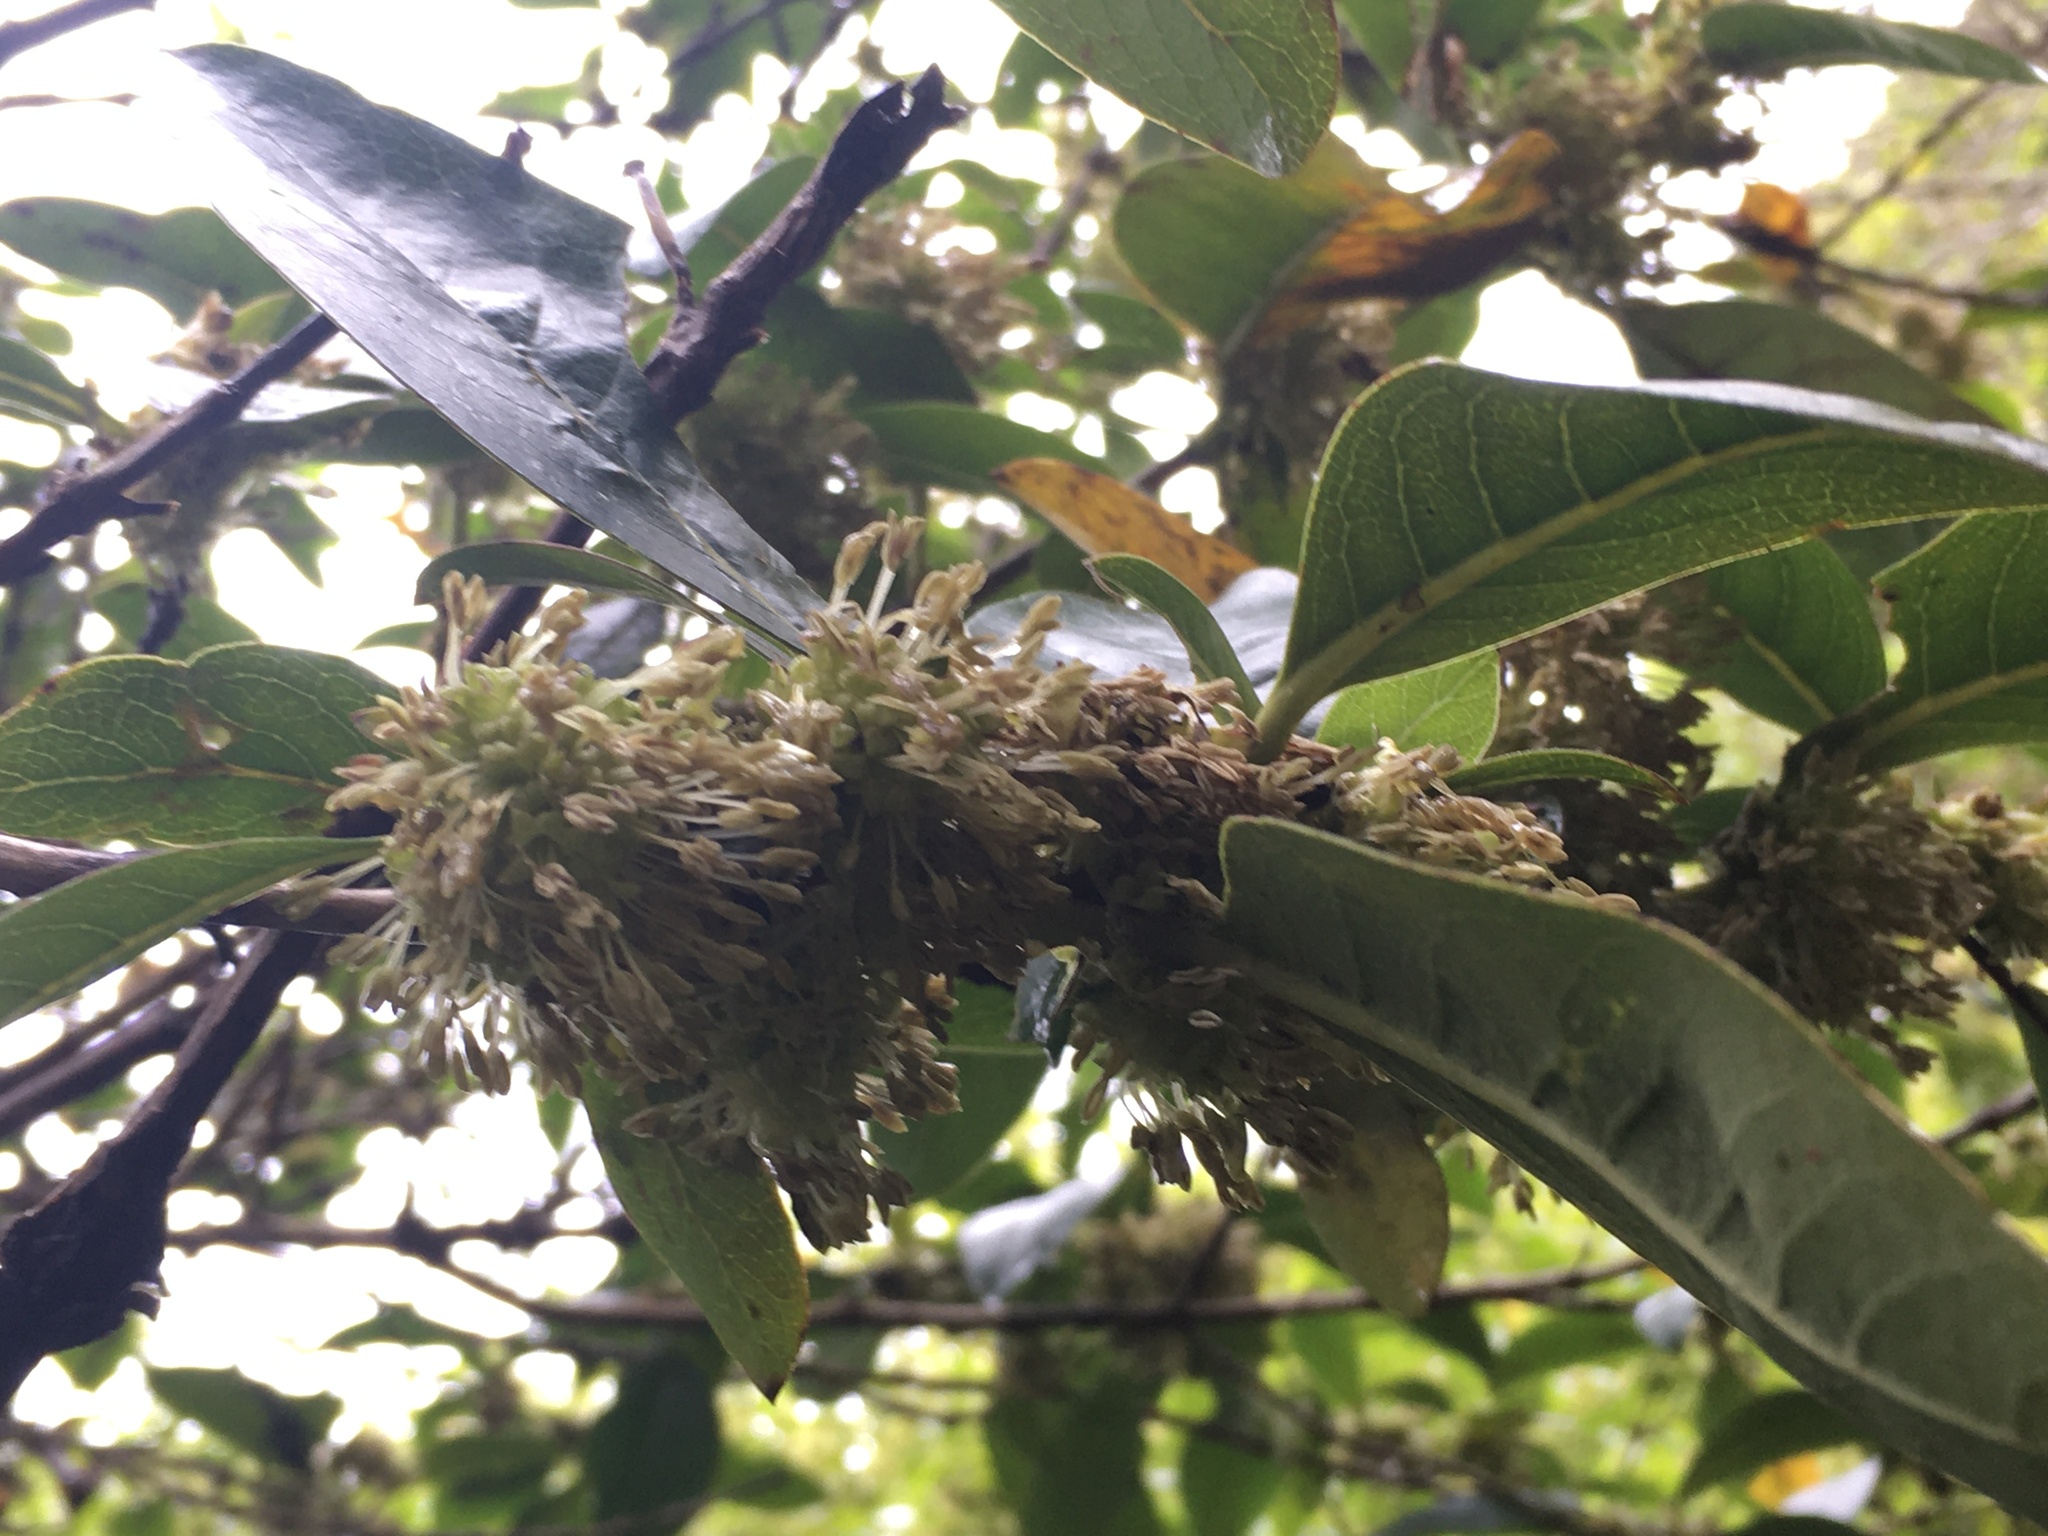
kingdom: Plantae
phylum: Tracheophyta
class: Magnoliopsida
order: Gentianales
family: Rubiaceae
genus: Coprosma
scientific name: Coprosma robusta
